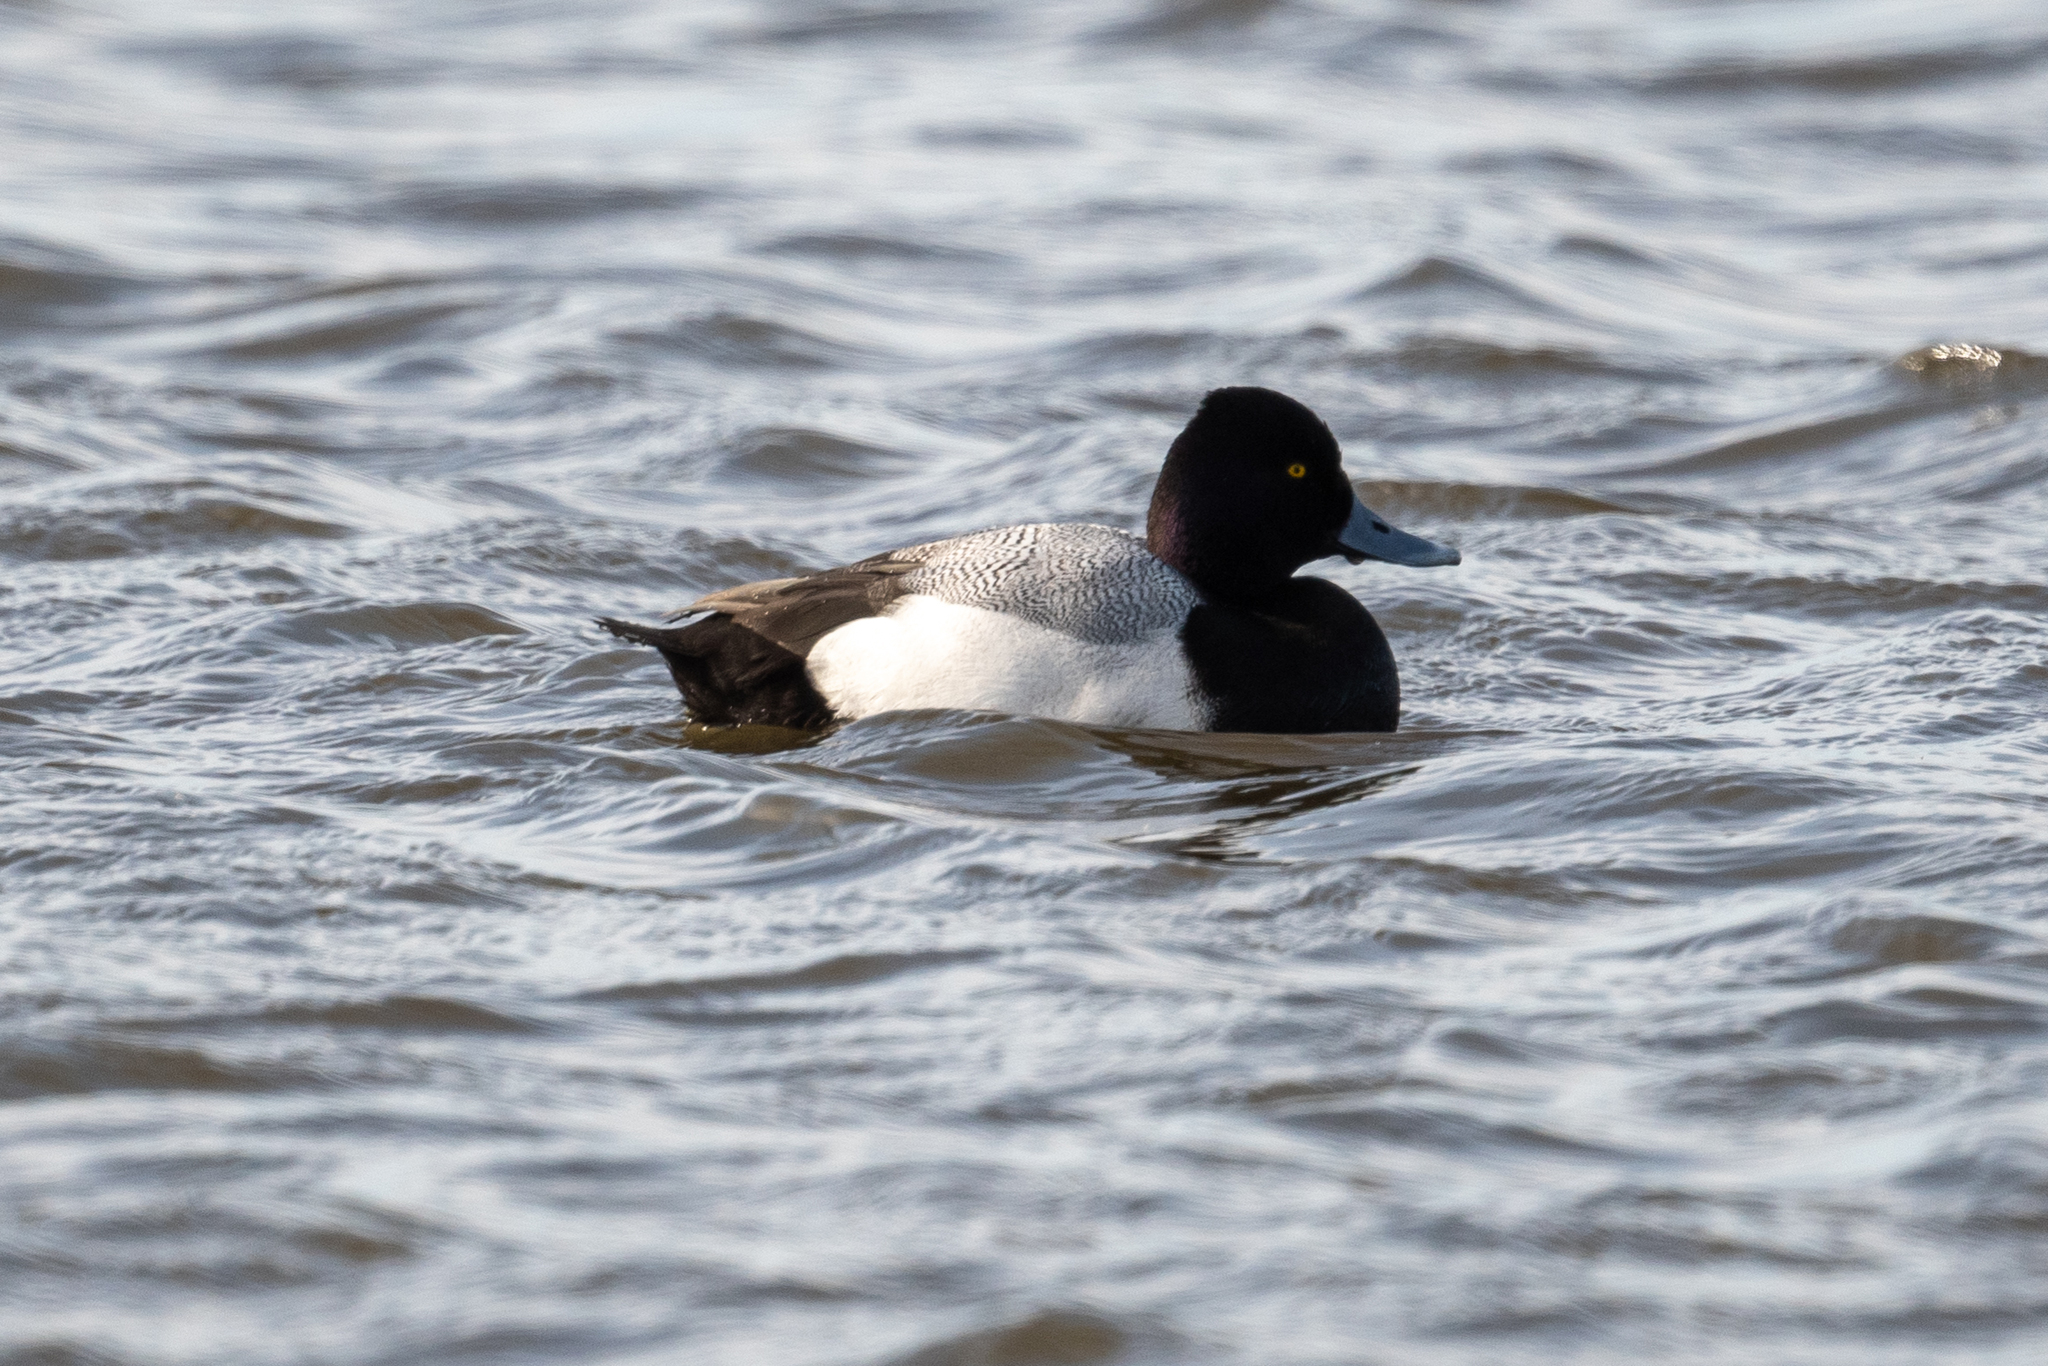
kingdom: Animalia
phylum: Chordata
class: Aves
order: Anseriformes
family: Anatidae
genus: Aythya
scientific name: Aythya affinis
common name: Lesser scaup
